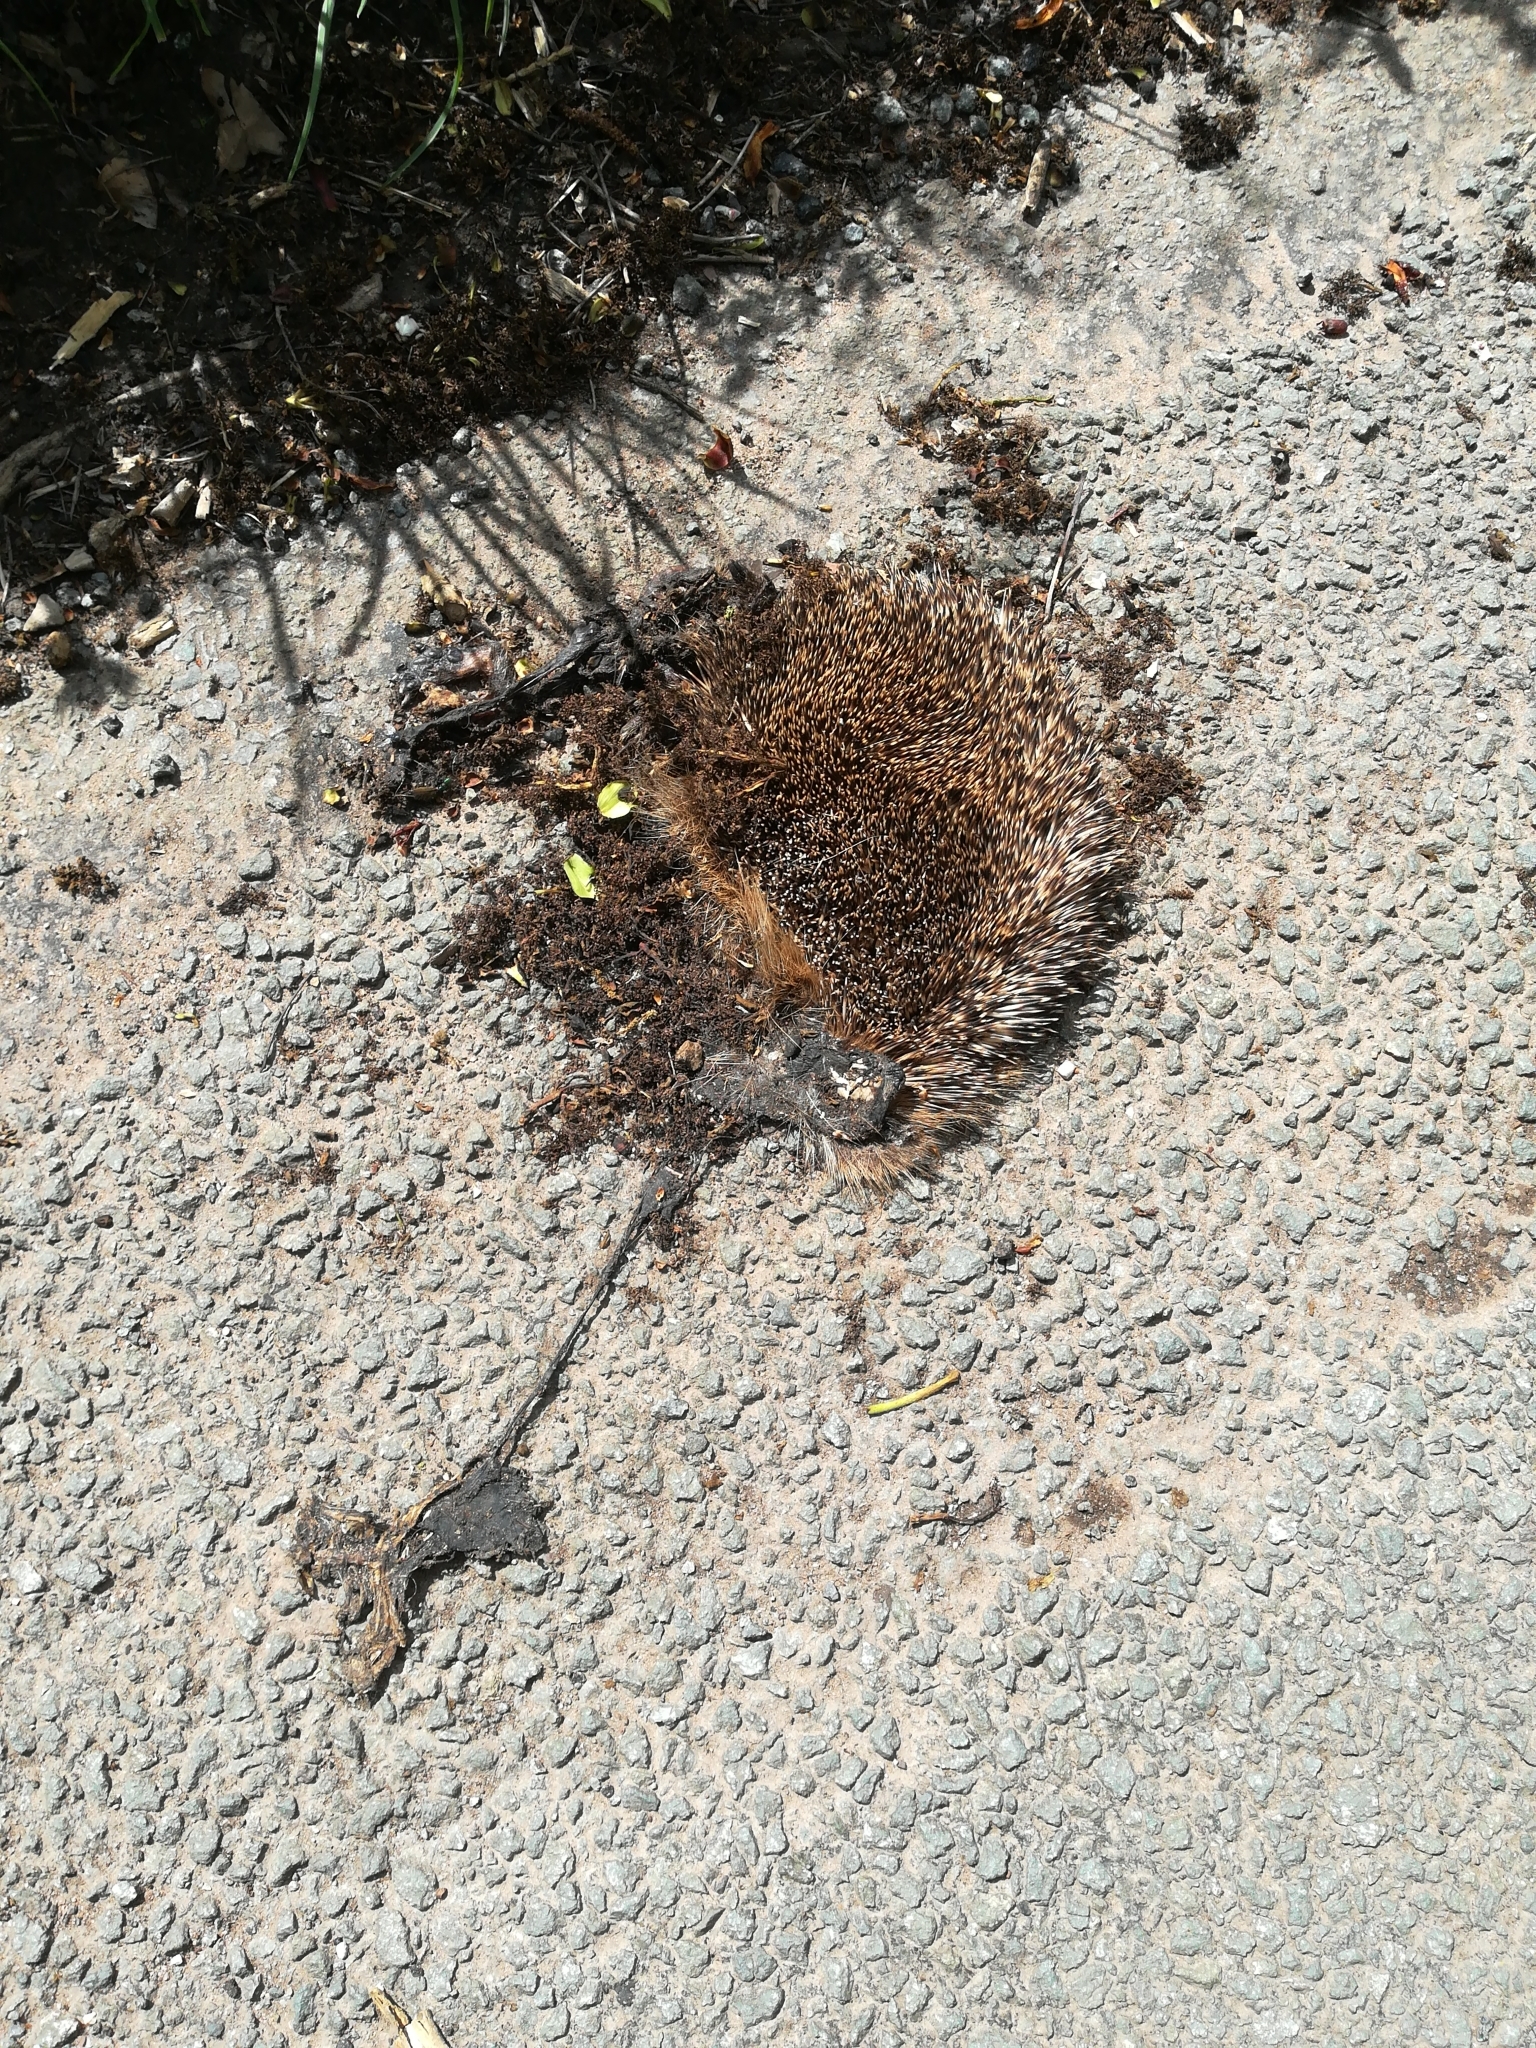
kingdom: Animalia
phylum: Chordata
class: Mammalia
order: Erinaceomorpha
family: Erinaceidae
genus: Erinaceus
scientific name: Erinaceus europaeus
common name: West european hedgehog
